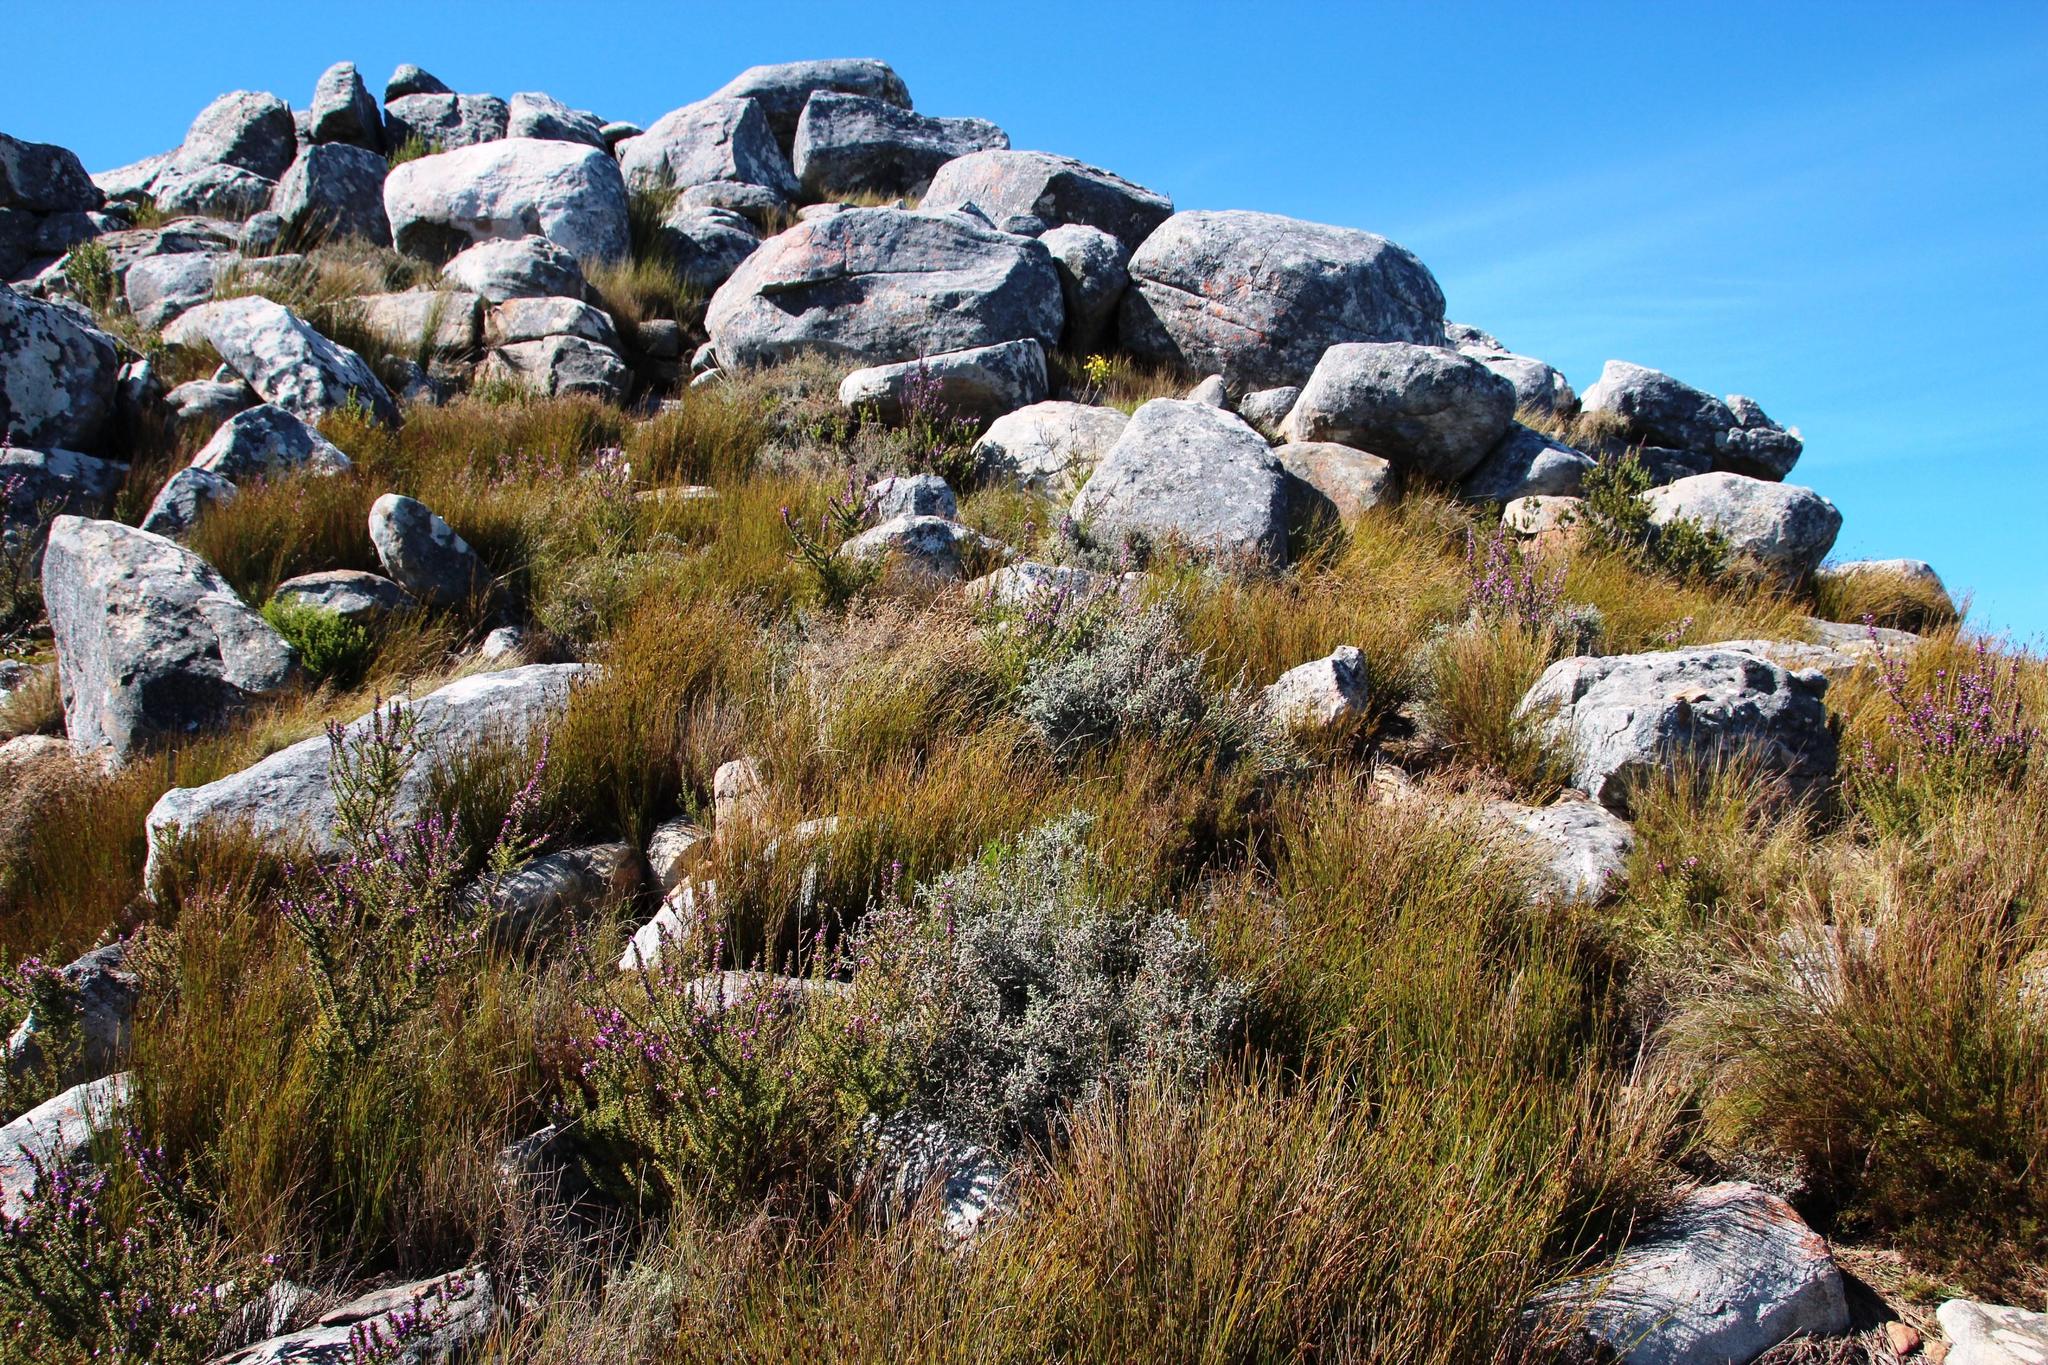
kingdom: Plantae
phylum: Tracheophyta
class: Liliopsida
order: Poales
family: Restionaceae
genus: Restio
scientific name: Restio fraternus
